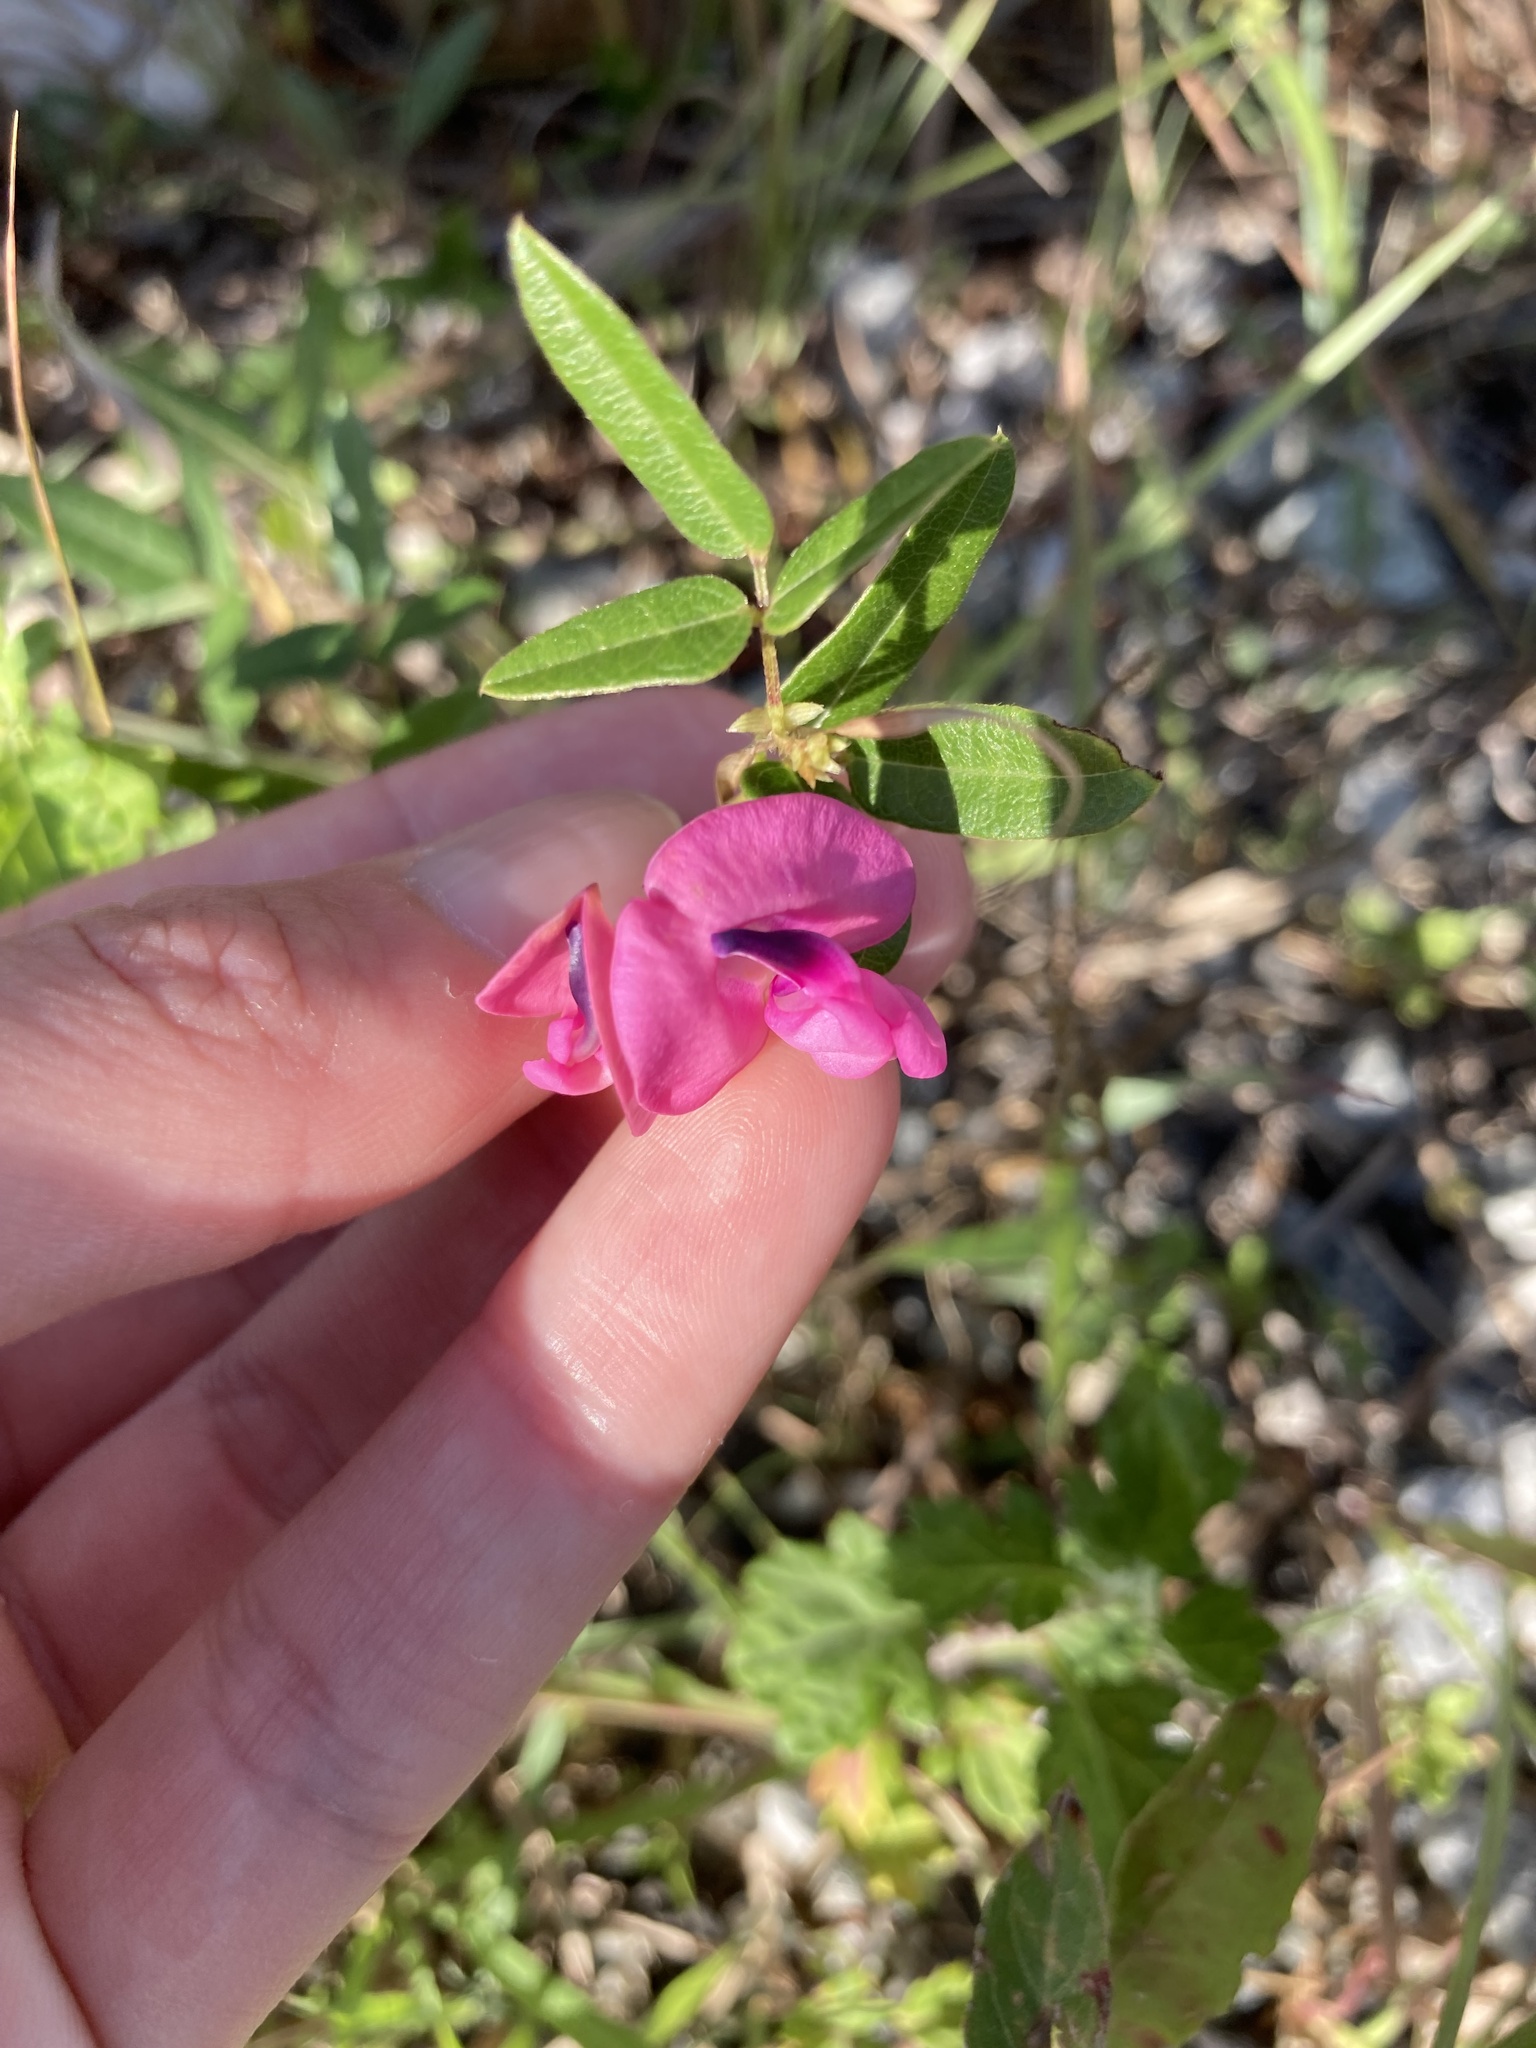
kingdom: Plantae
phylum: Tracheophyta
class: Magnoliopsida
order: Fabales
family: Fabaceae
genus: Strophostyles
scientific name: Strophostyles umbellata
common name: Perennial wild bean
